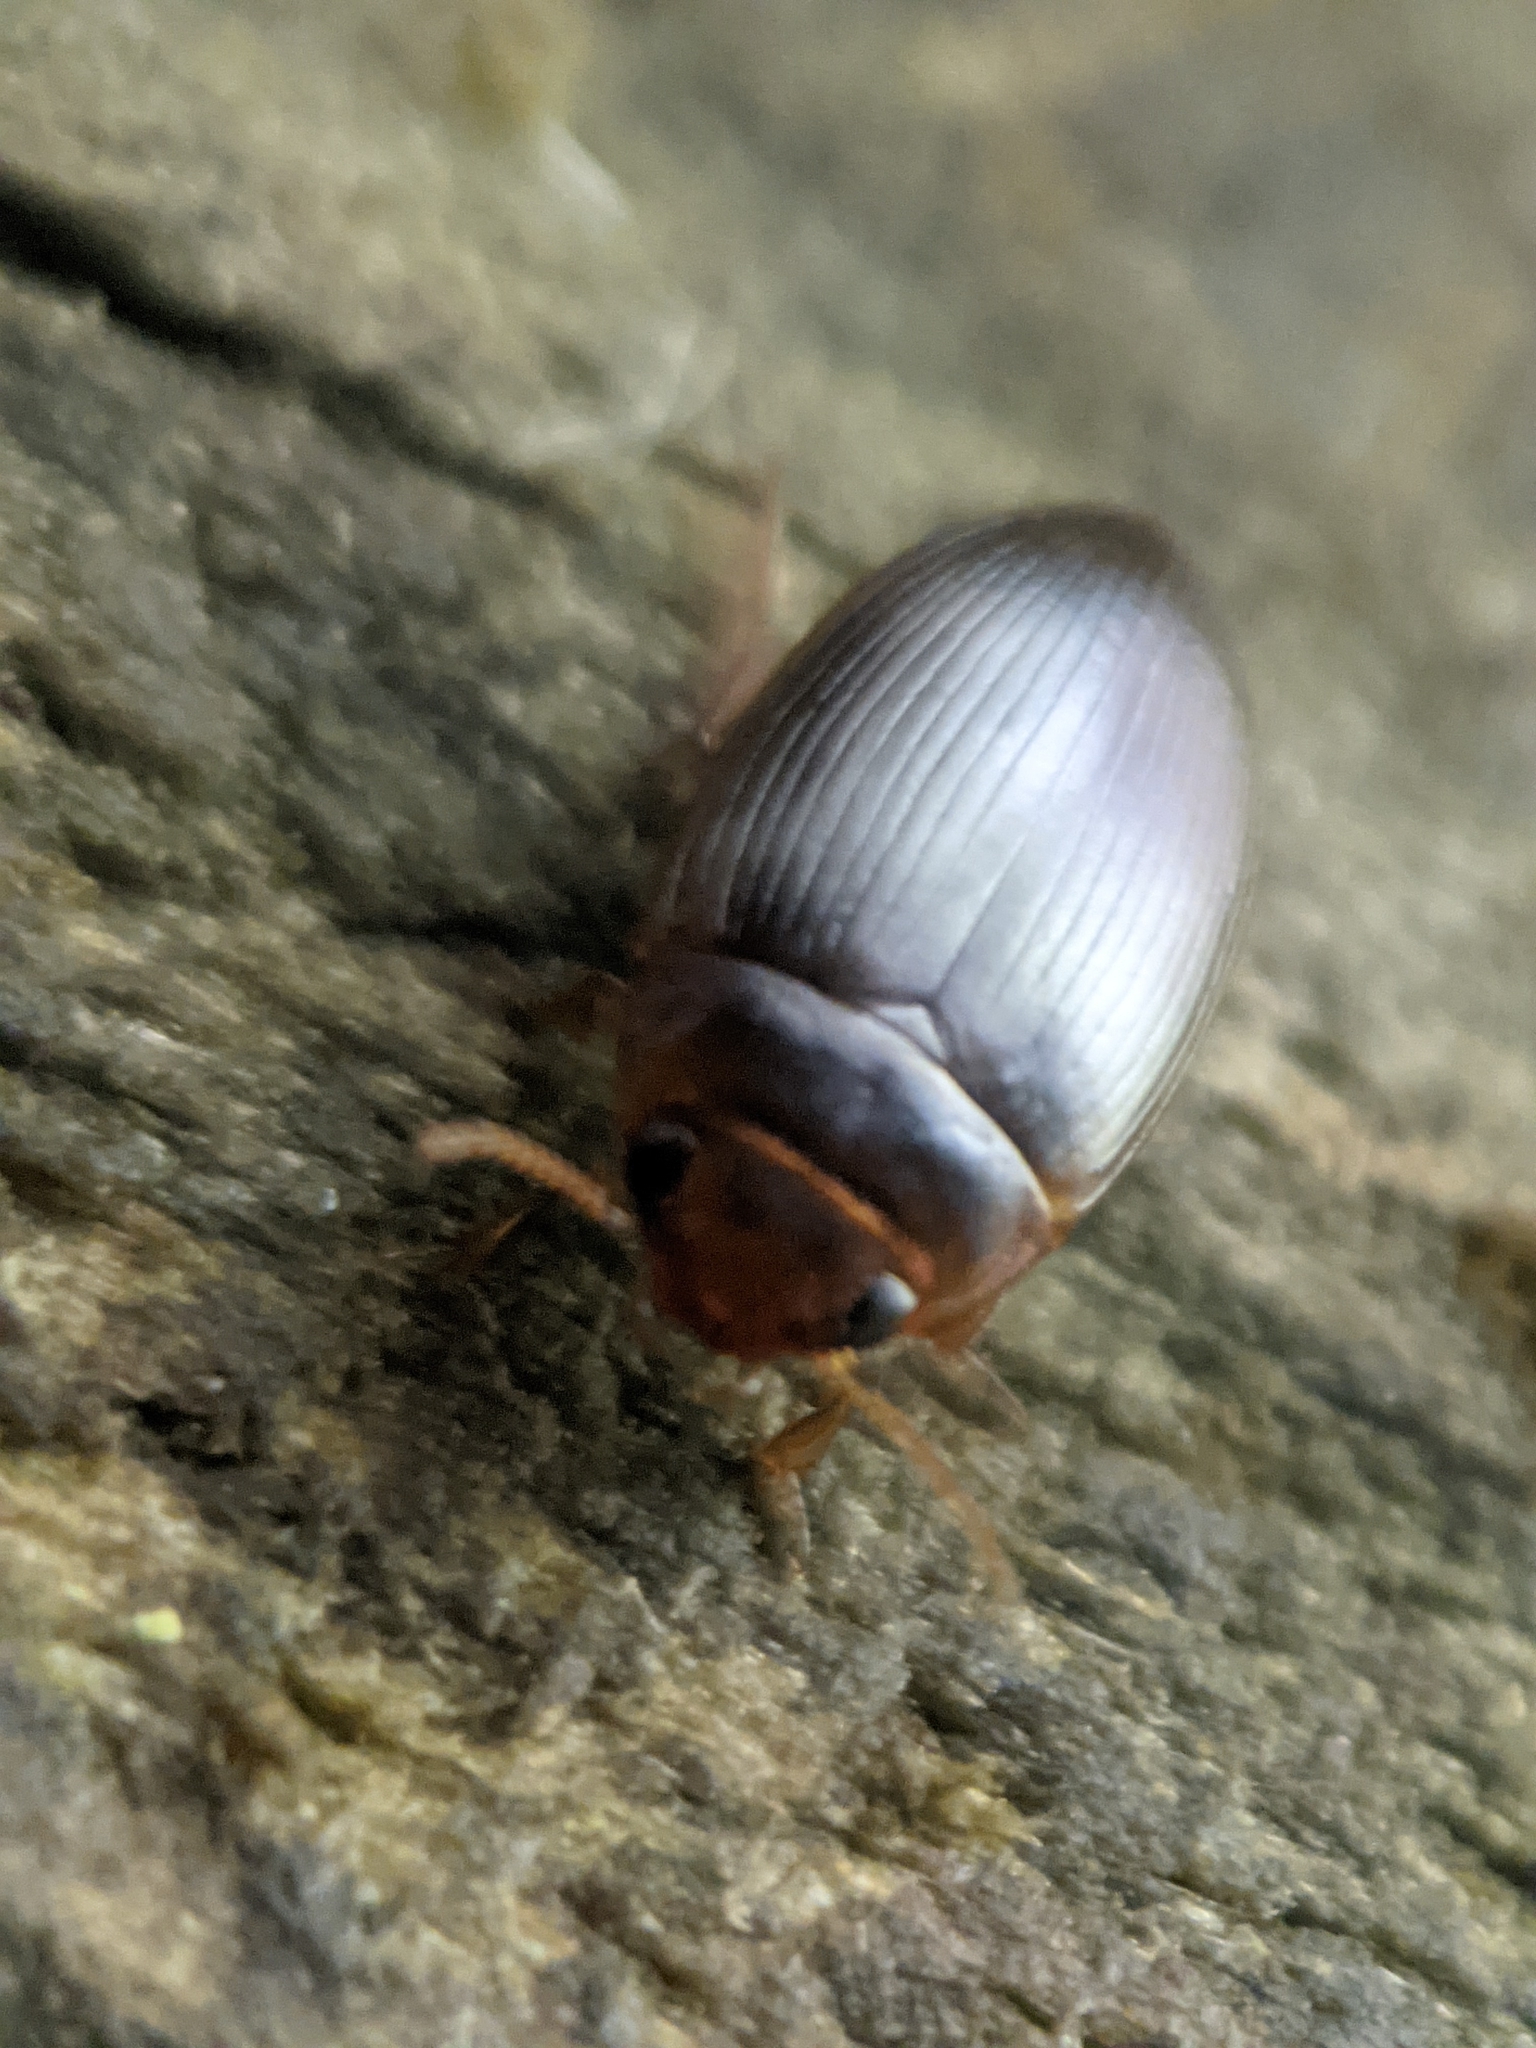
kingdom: Animalia
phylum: Arthropoda
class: Insecta
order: Coleoptera
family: Dytiscidae
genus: Copelatus
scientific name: Copelatus glyphicus
